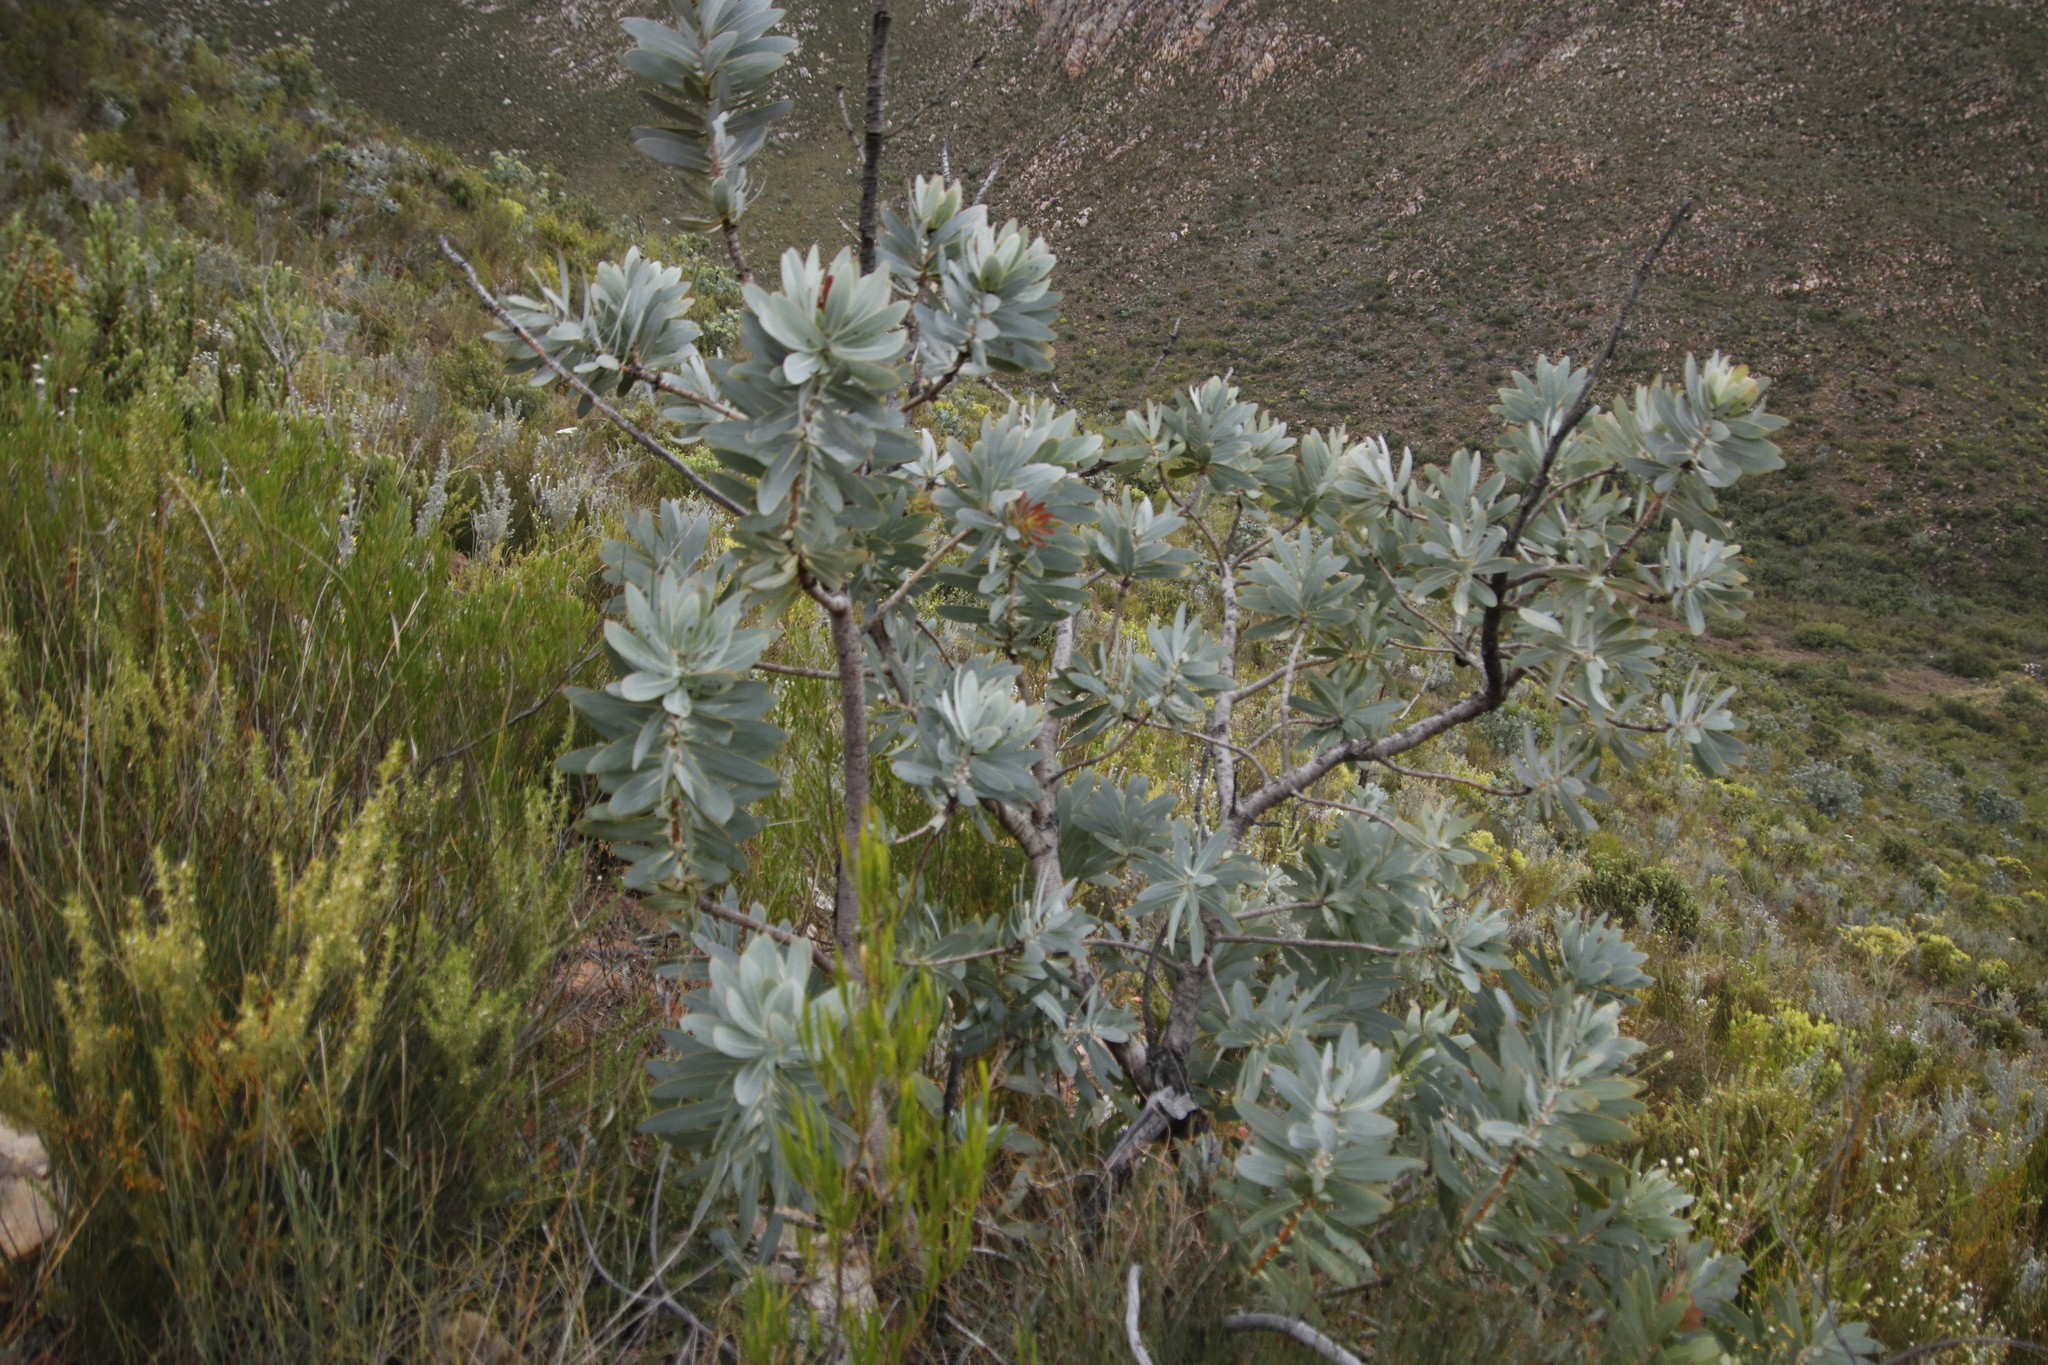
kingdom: Plantae
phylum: Tracheophyta
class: Magnoliopsida
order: Proteales
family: Proteaceae
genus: Protea
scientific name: Protea nitida
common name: Tree protea
